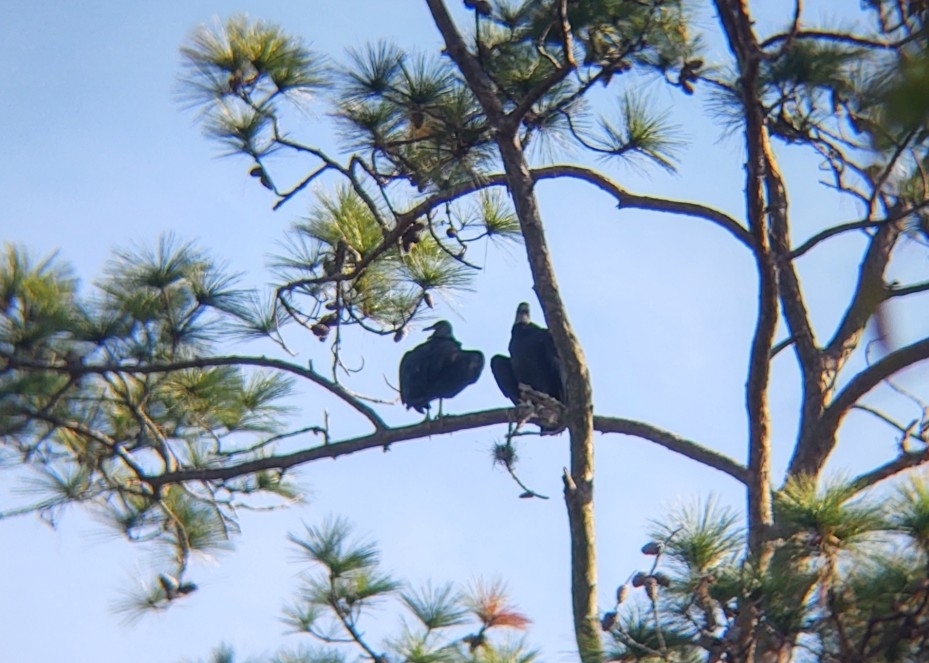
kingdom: Animalia
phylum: Chordata
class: Aves
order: Accipitriformes
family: Cathartidae
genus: Coragyps
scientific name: Coragyps atratus
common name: Black vulture
